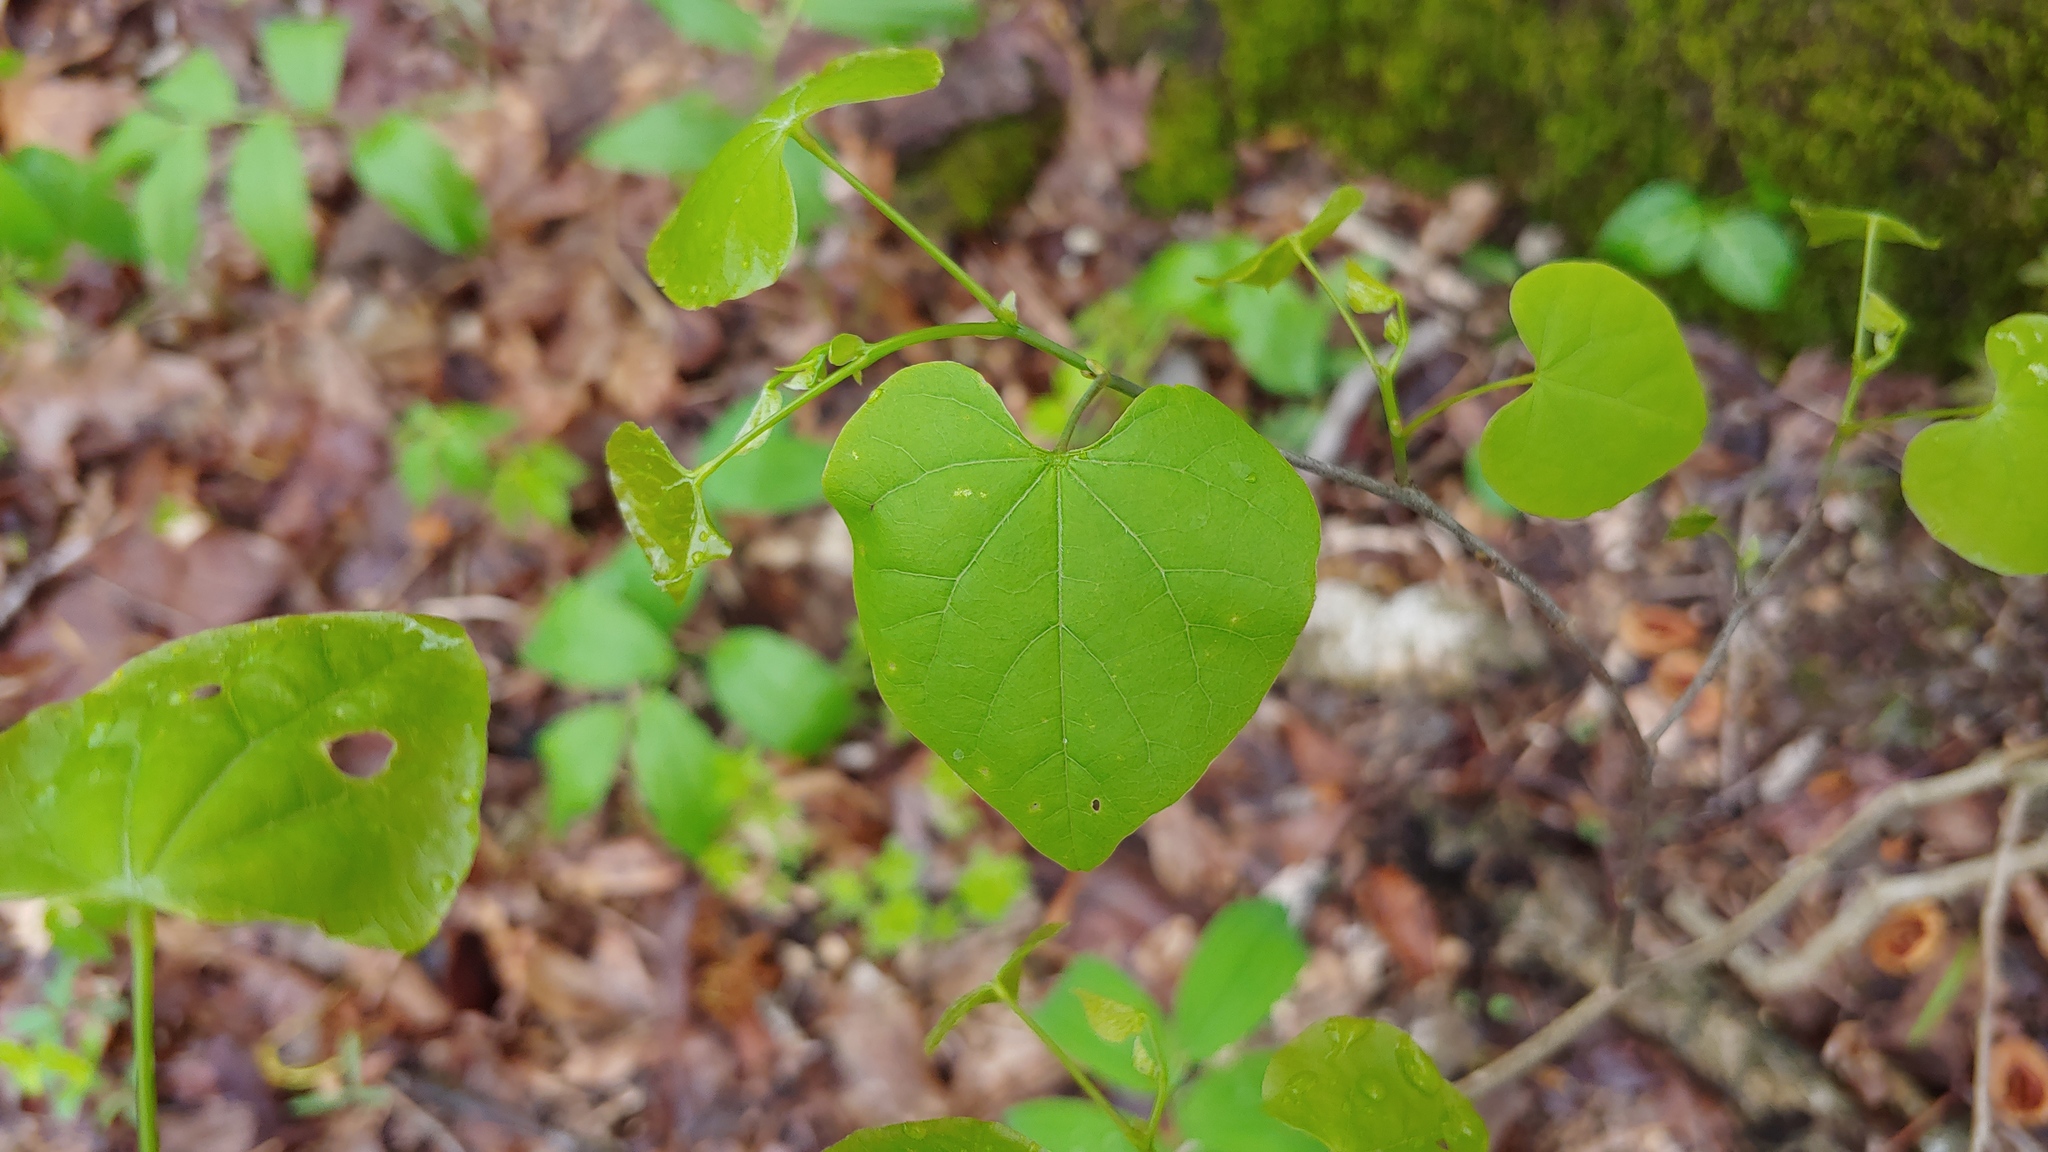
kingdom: Plantae
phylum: Tracheophyta
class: Magnoliopsida
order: Fabales
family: Fabaceae
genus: Cercis
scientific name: Cercis canadensis
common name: Eastern redbud
